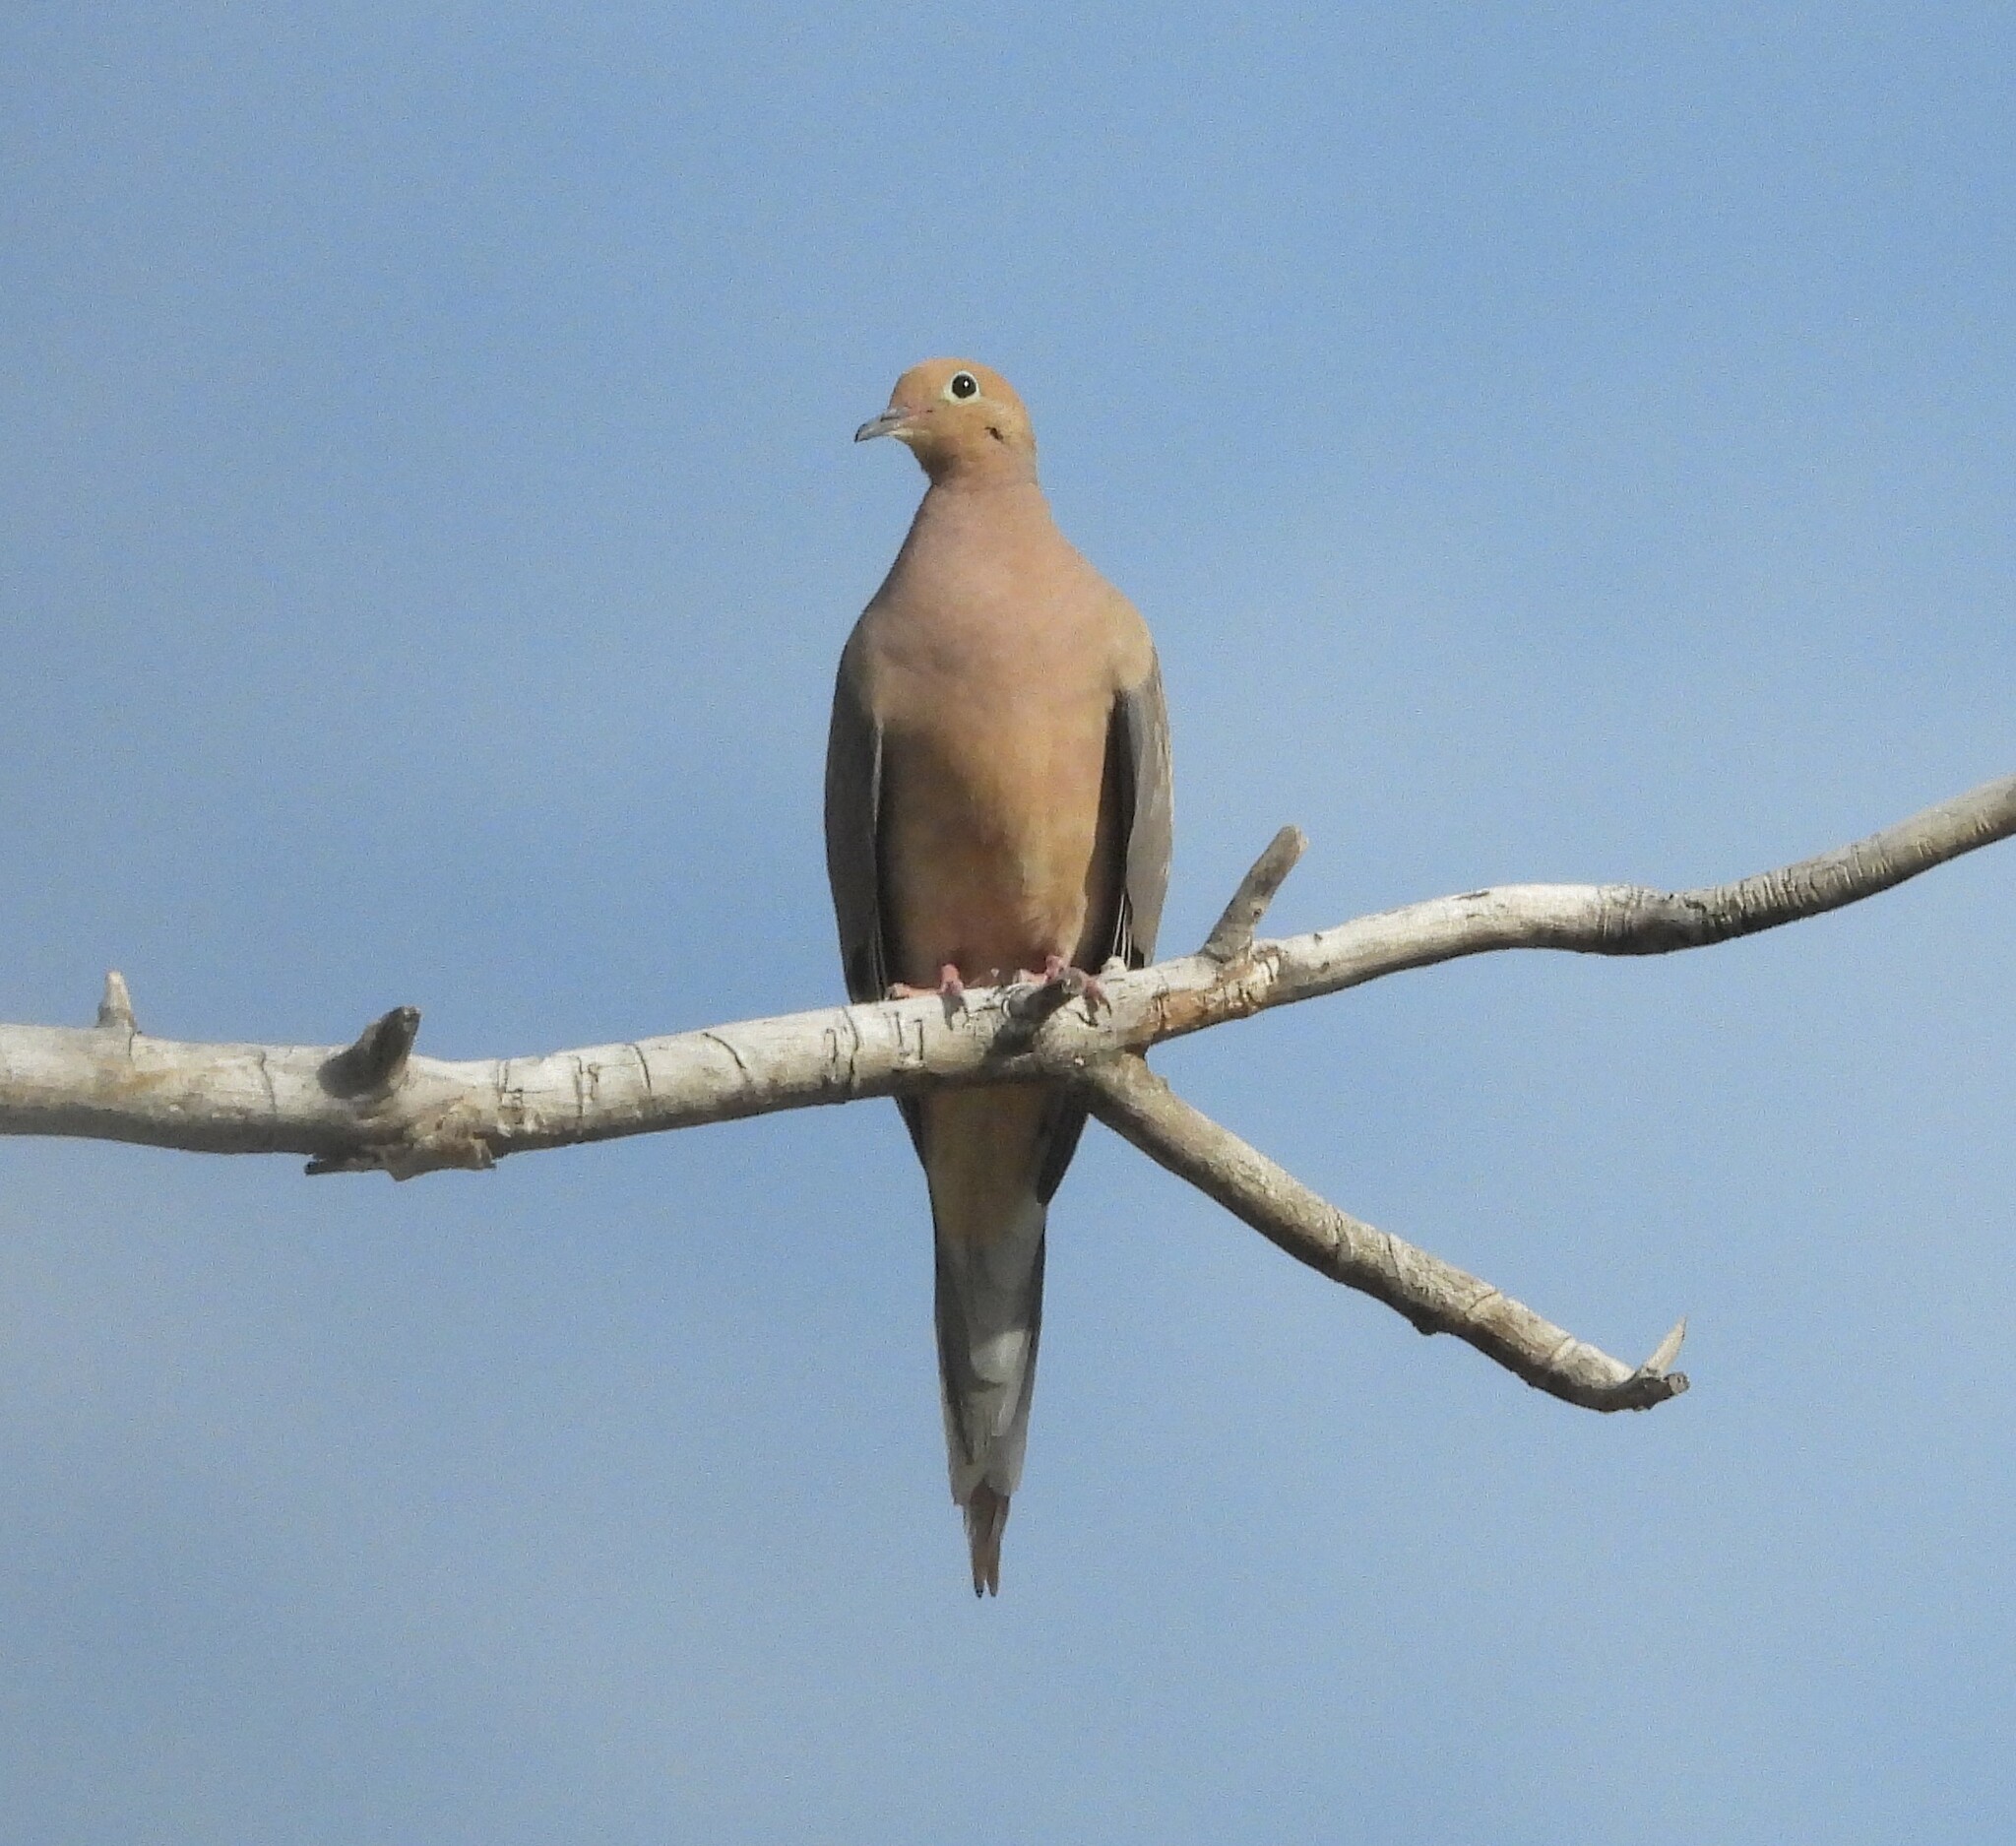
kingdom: Animalia
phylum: Chordata
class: Aves
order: Columbiformes
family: Columbidae
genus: Zenaida
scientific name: Zenaida macroura
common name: Mourning dove
